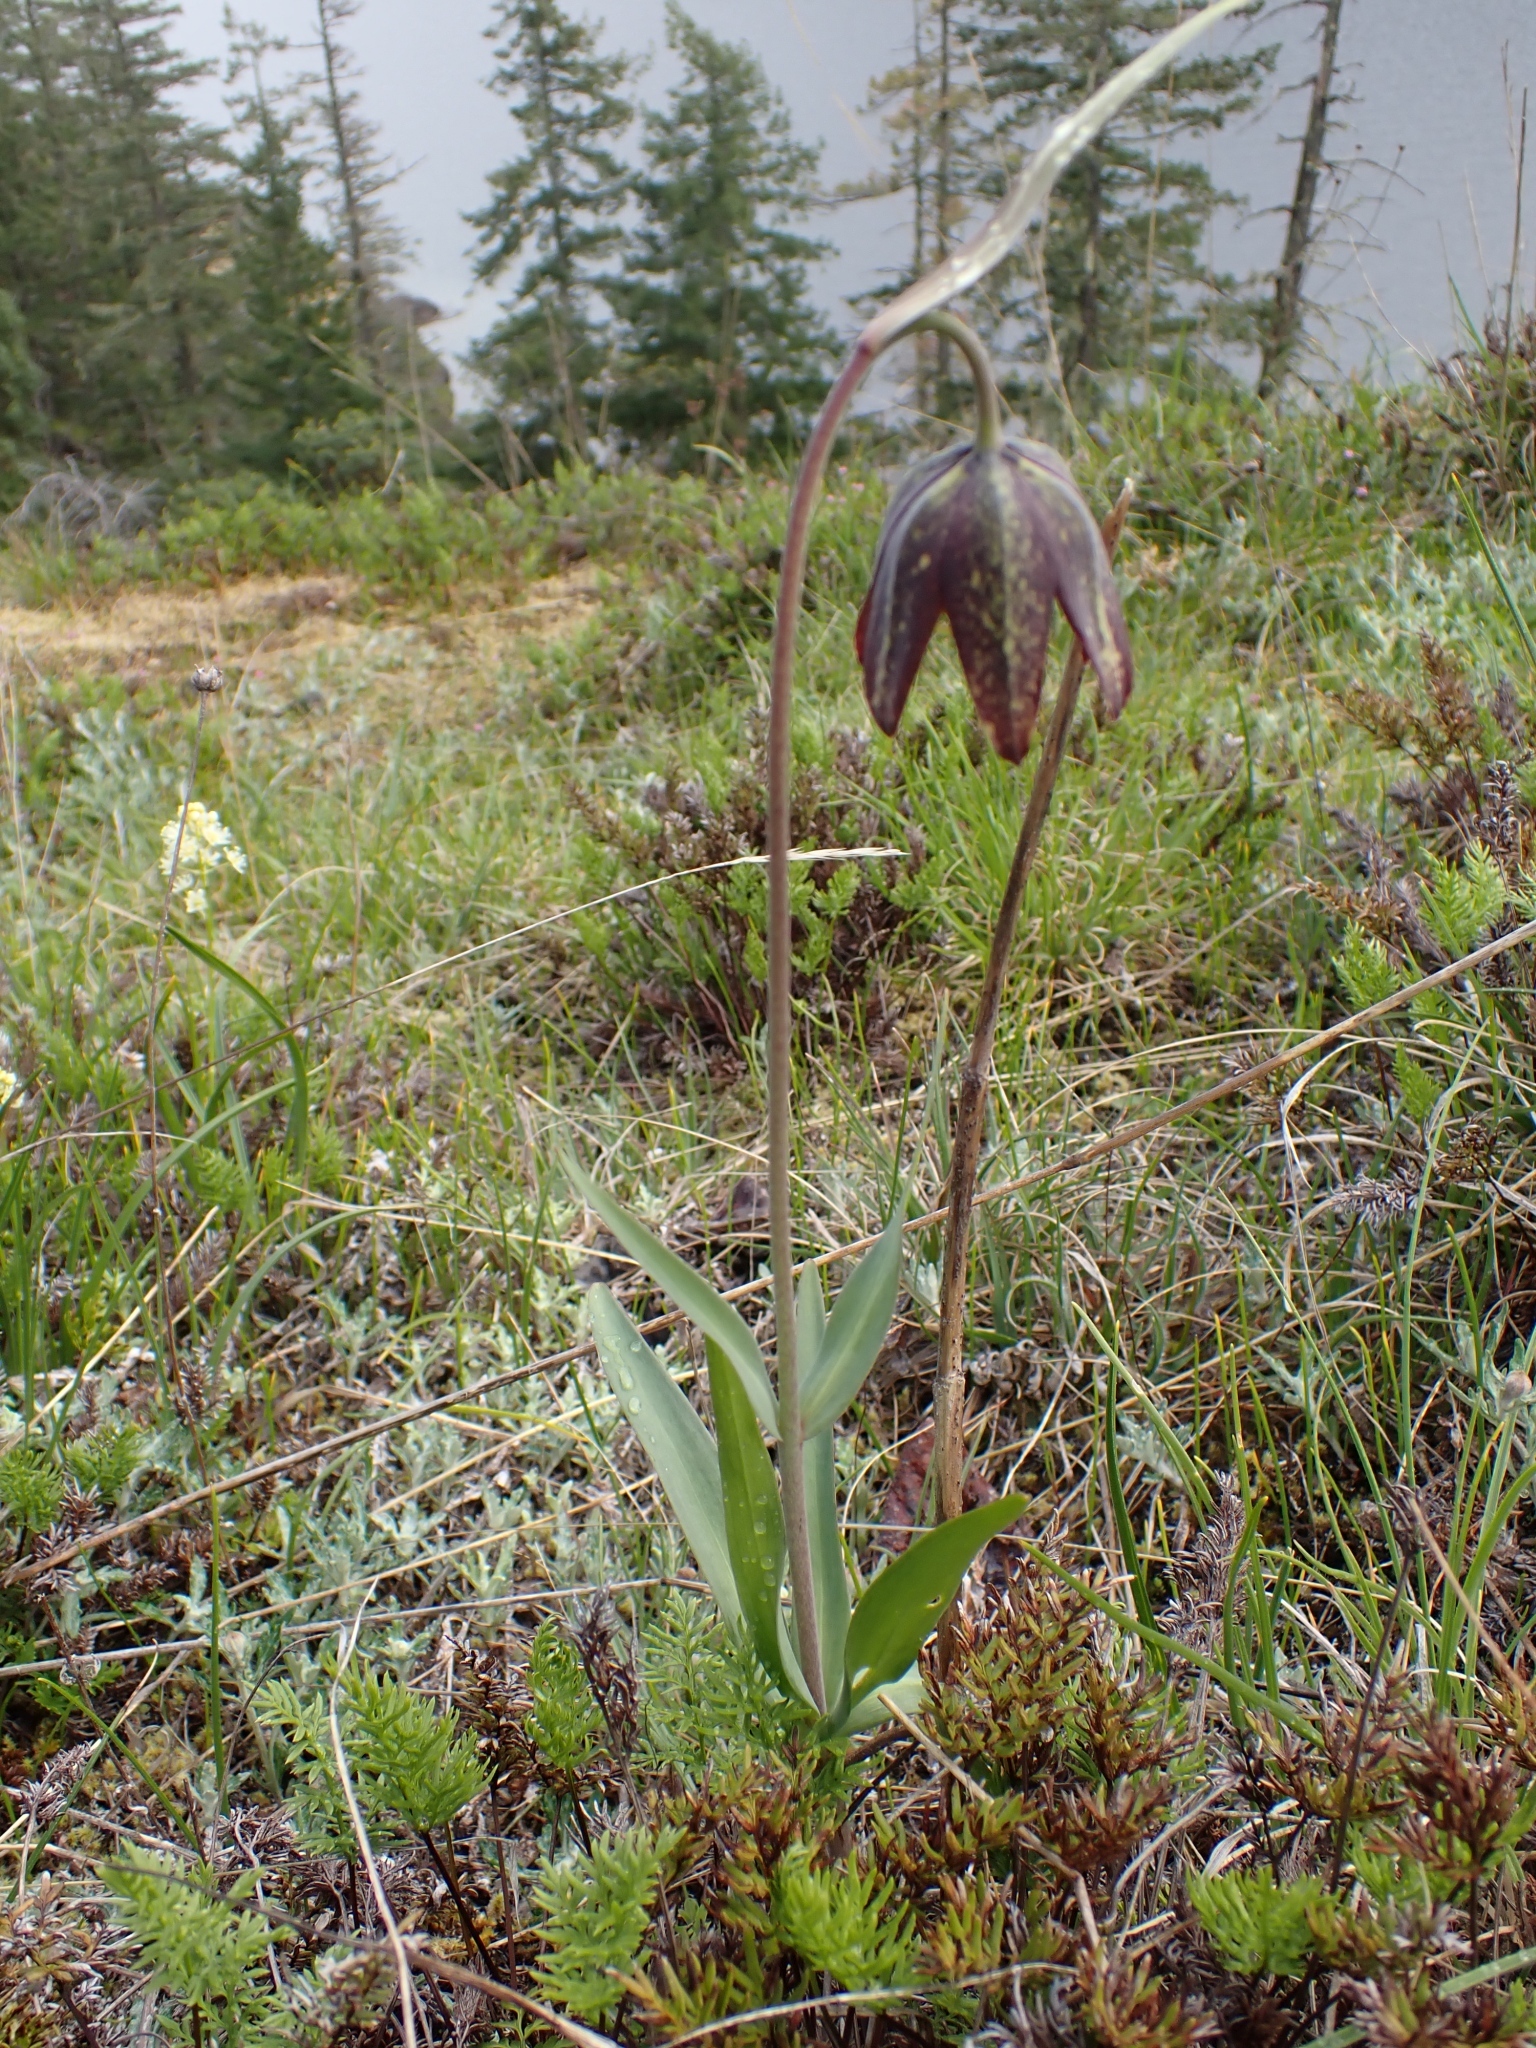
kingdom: Plantae
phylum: Tracheophyta
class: Liliopsida
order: Liliales
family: Liliaceae
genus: Fritillaria
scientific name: Fritillaria affinis
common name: Ojai fritillary
